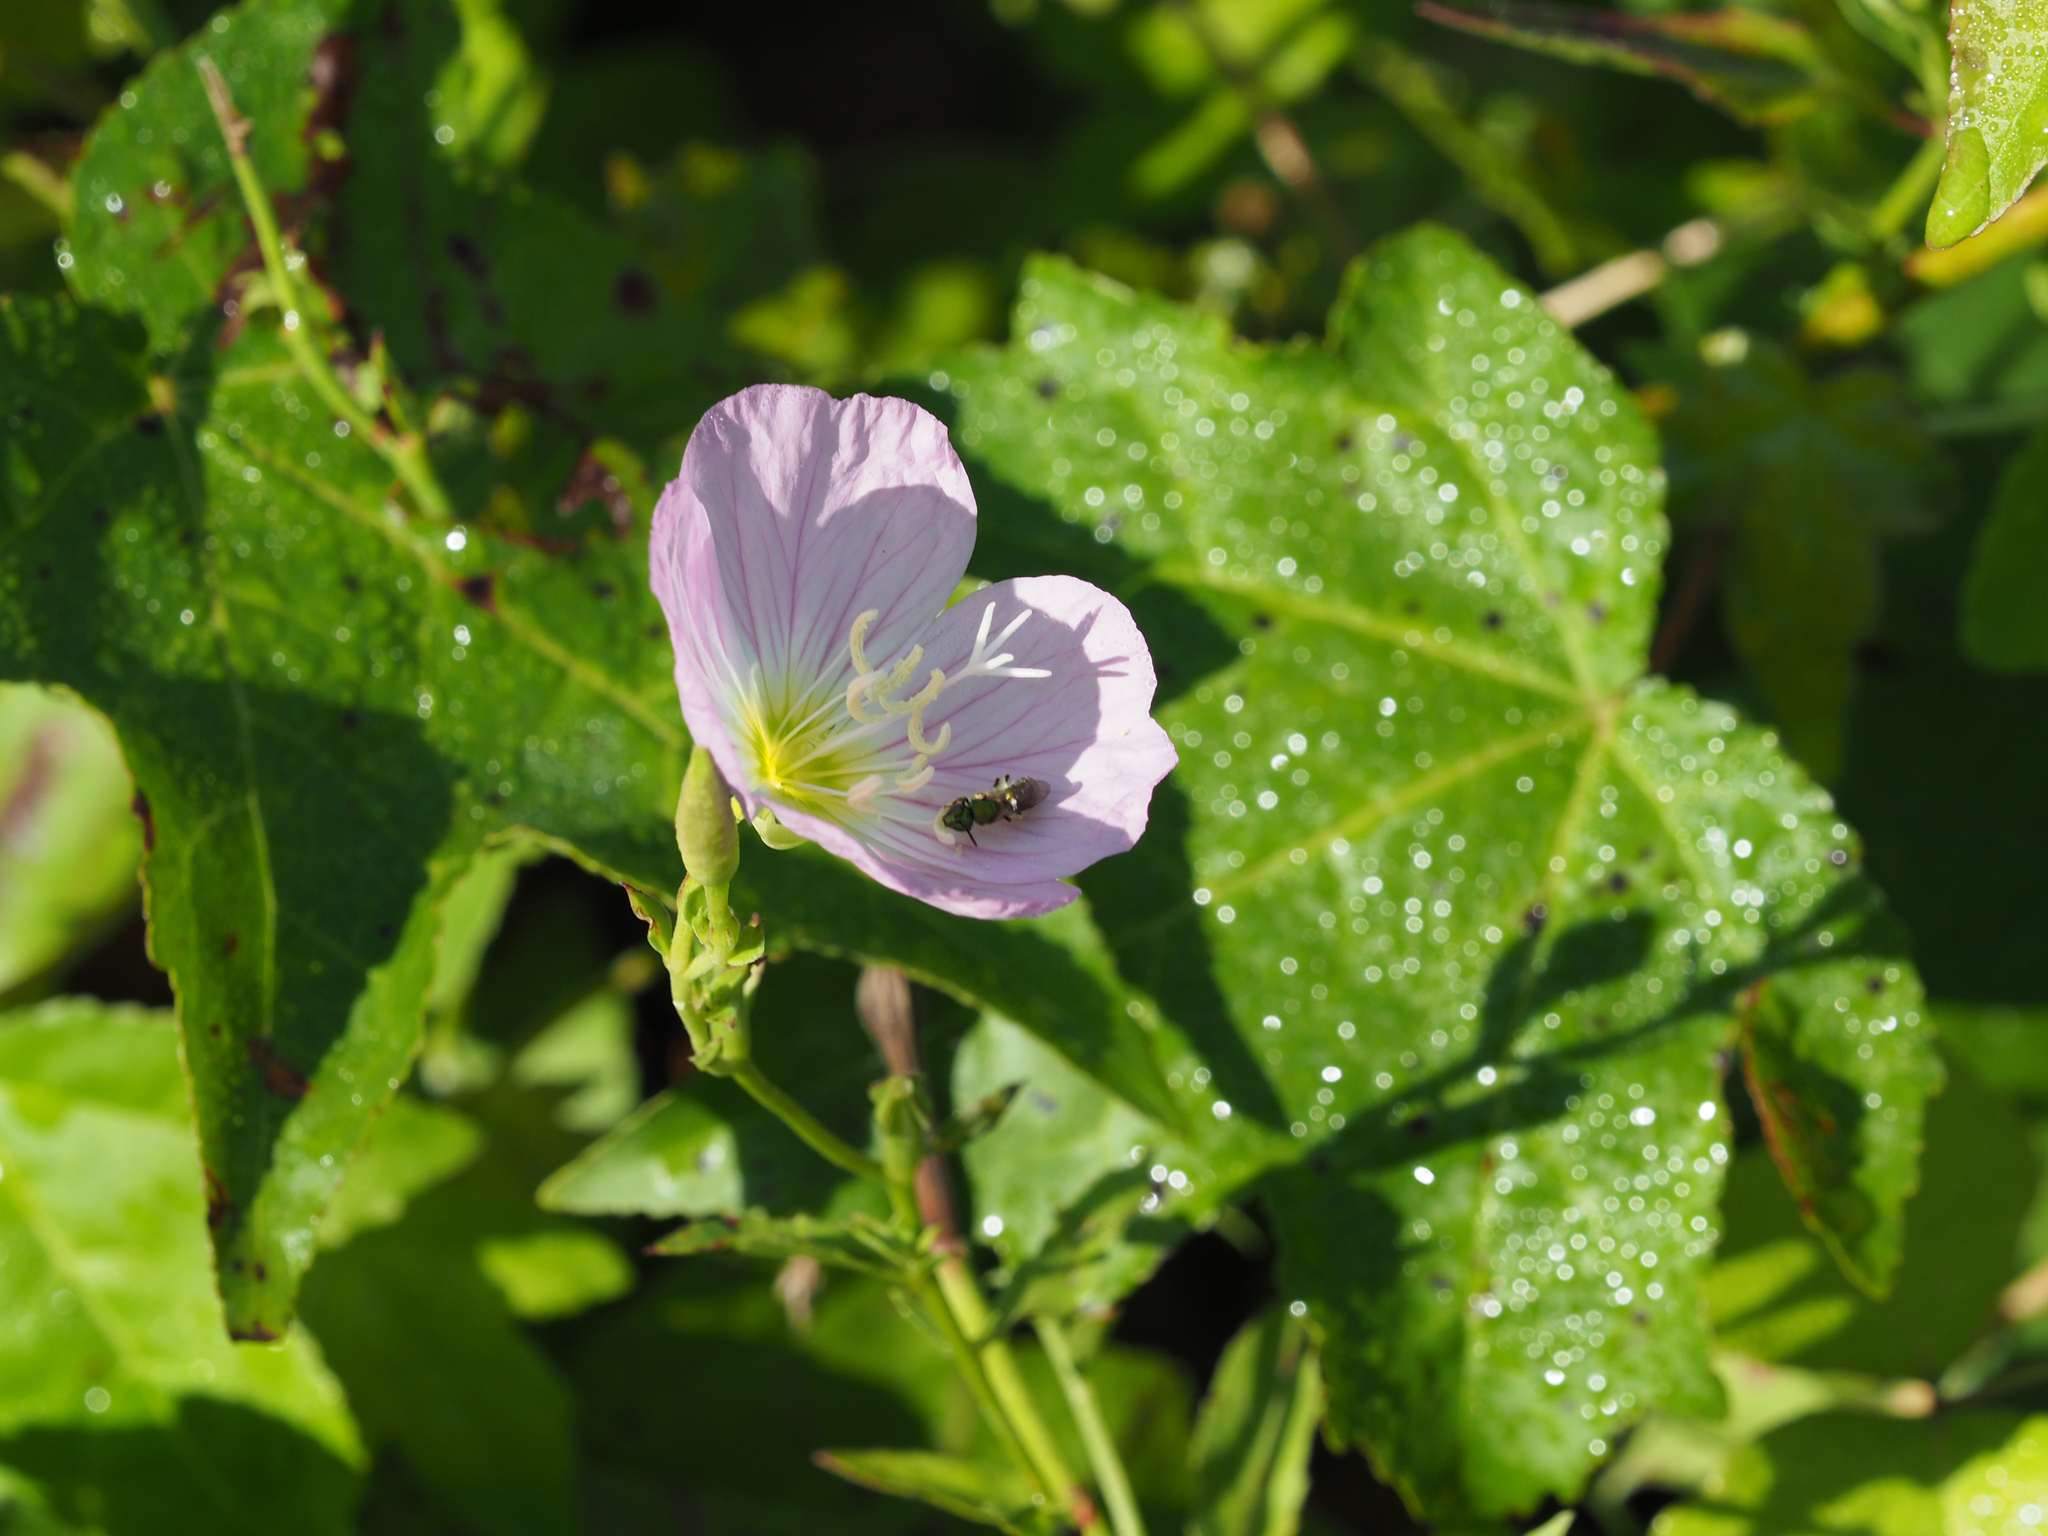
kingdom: Plantae
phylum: Tracheophyta
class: Magnoliopsida
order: Myrtales
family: Onagraceae
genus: Oenothera
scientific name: Oenothera speciosa
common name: White evening-primrose
